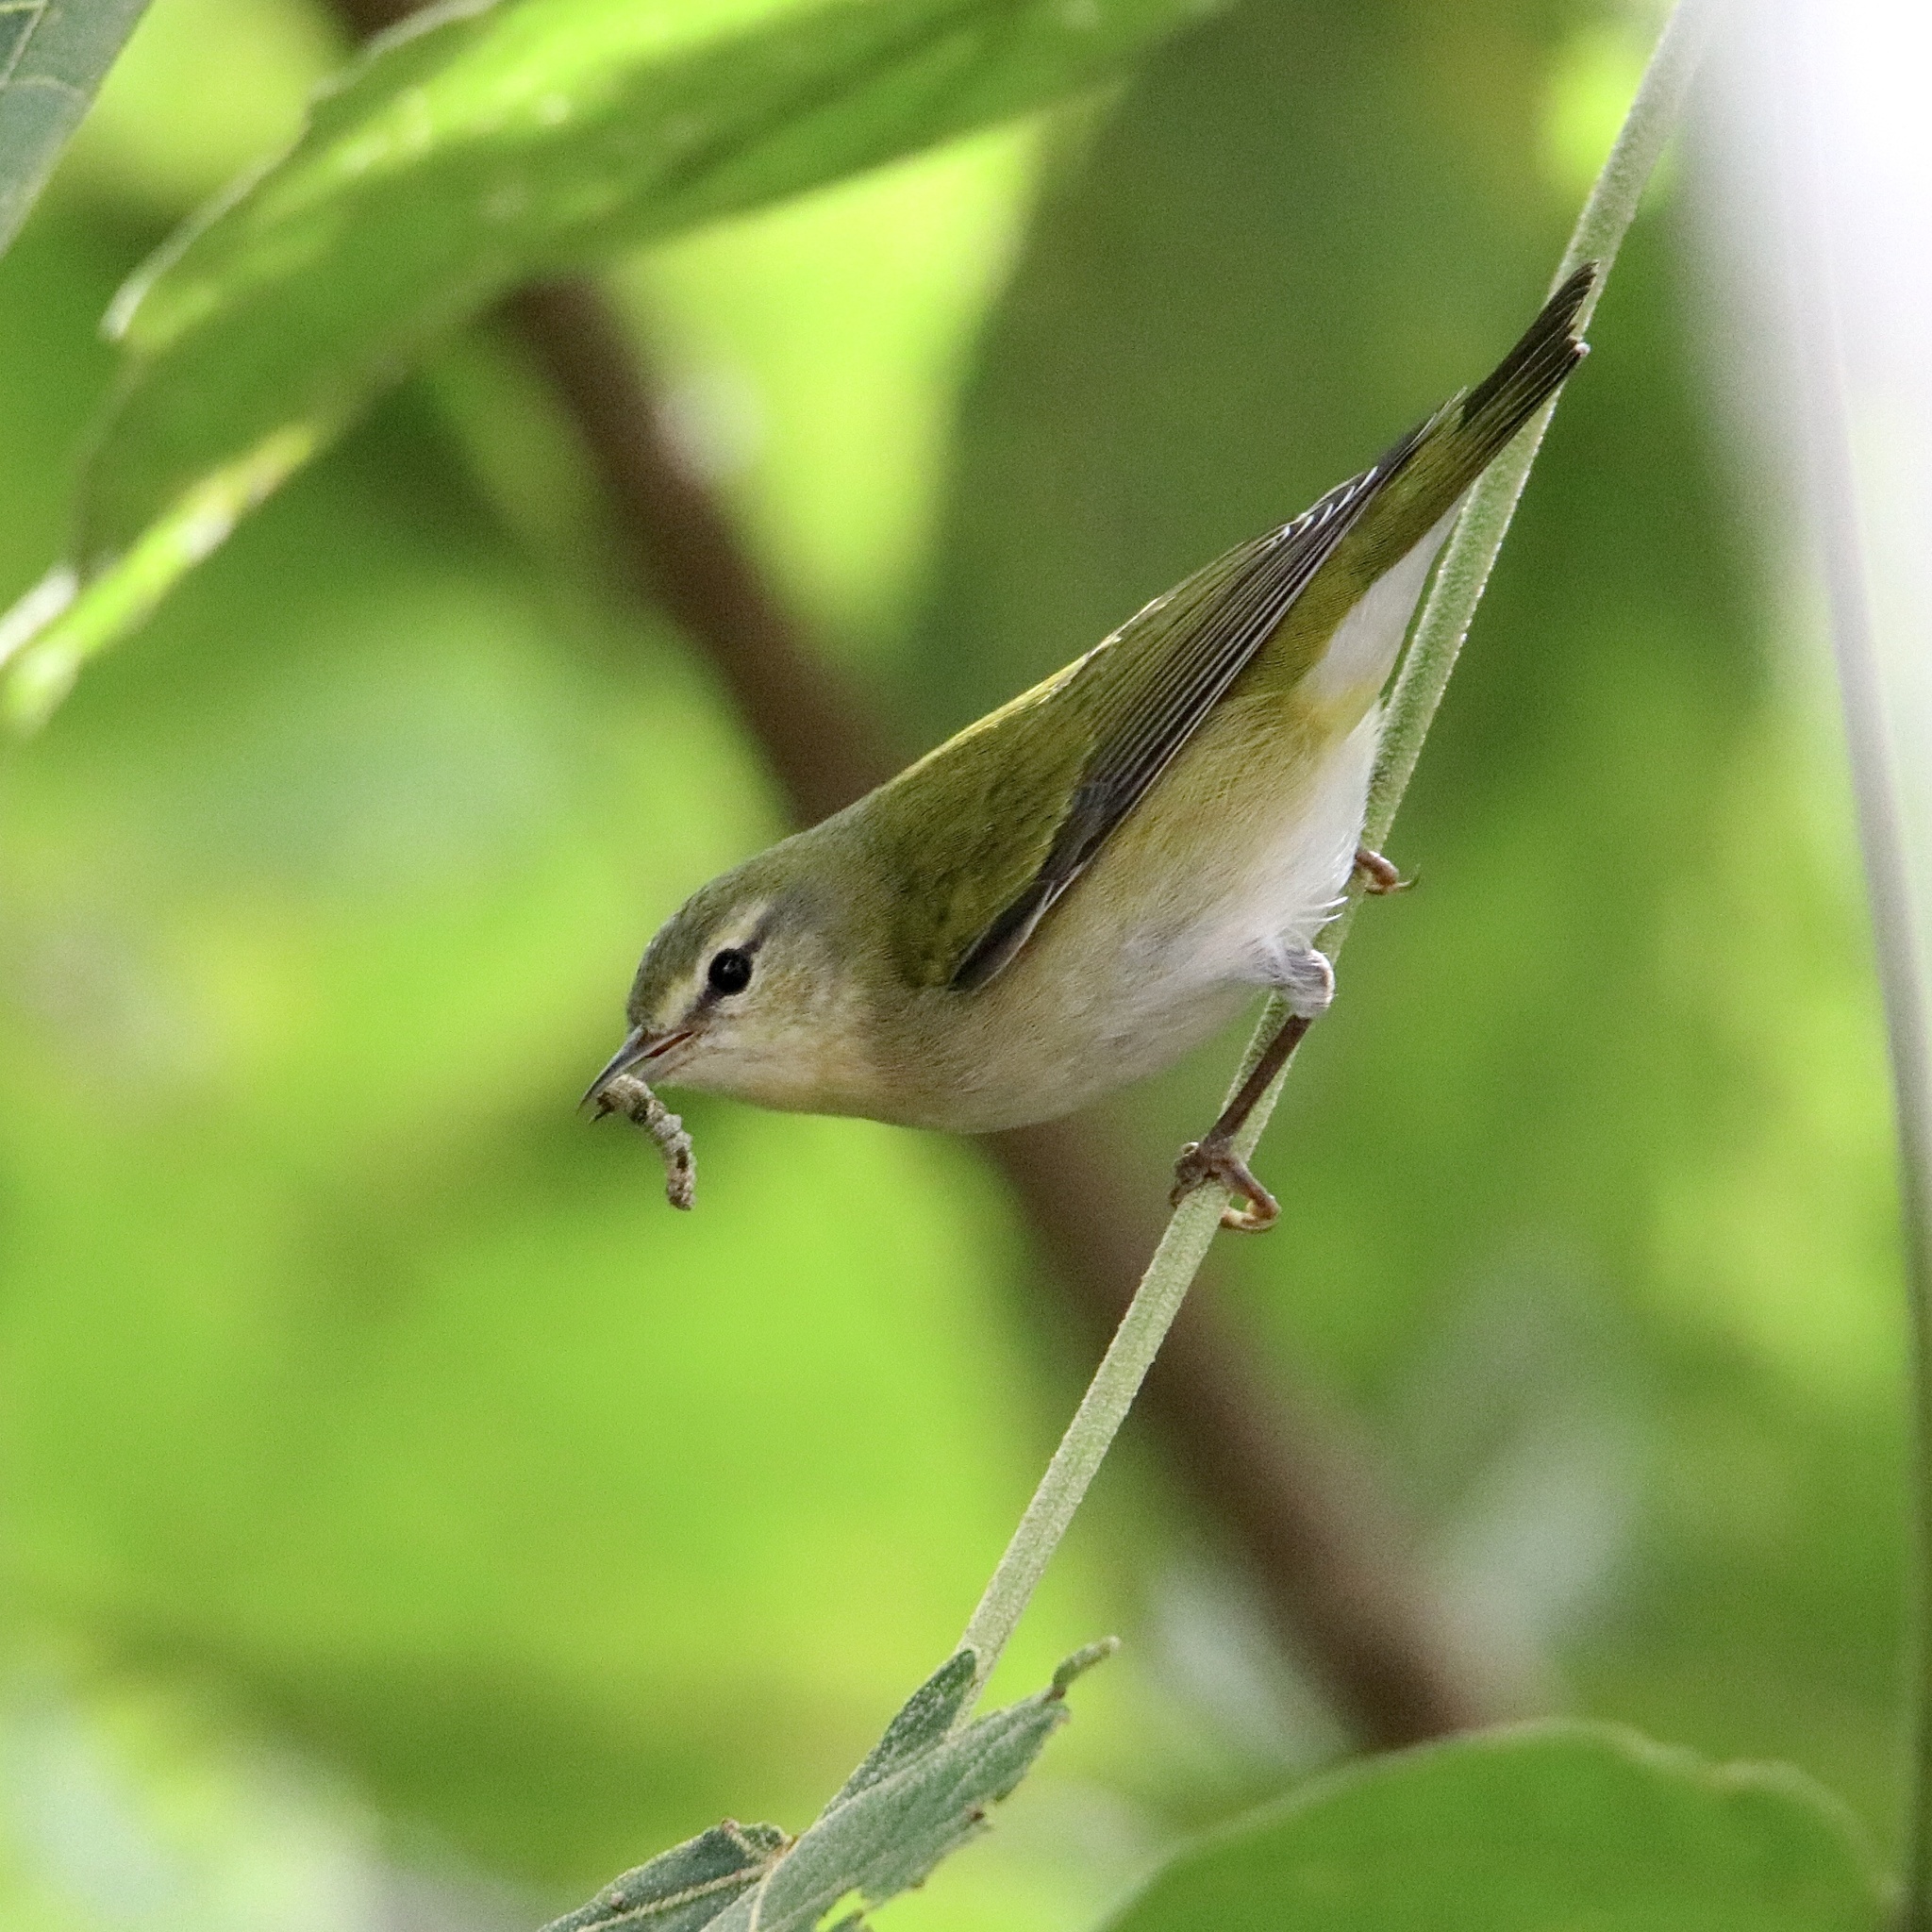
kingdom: Animalia
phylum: Chordata
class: Aves
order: Passeriformes
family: Parulidae
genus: Leiothlypis
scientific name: Leiothlypis peregrina
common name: Tennessee warbler
